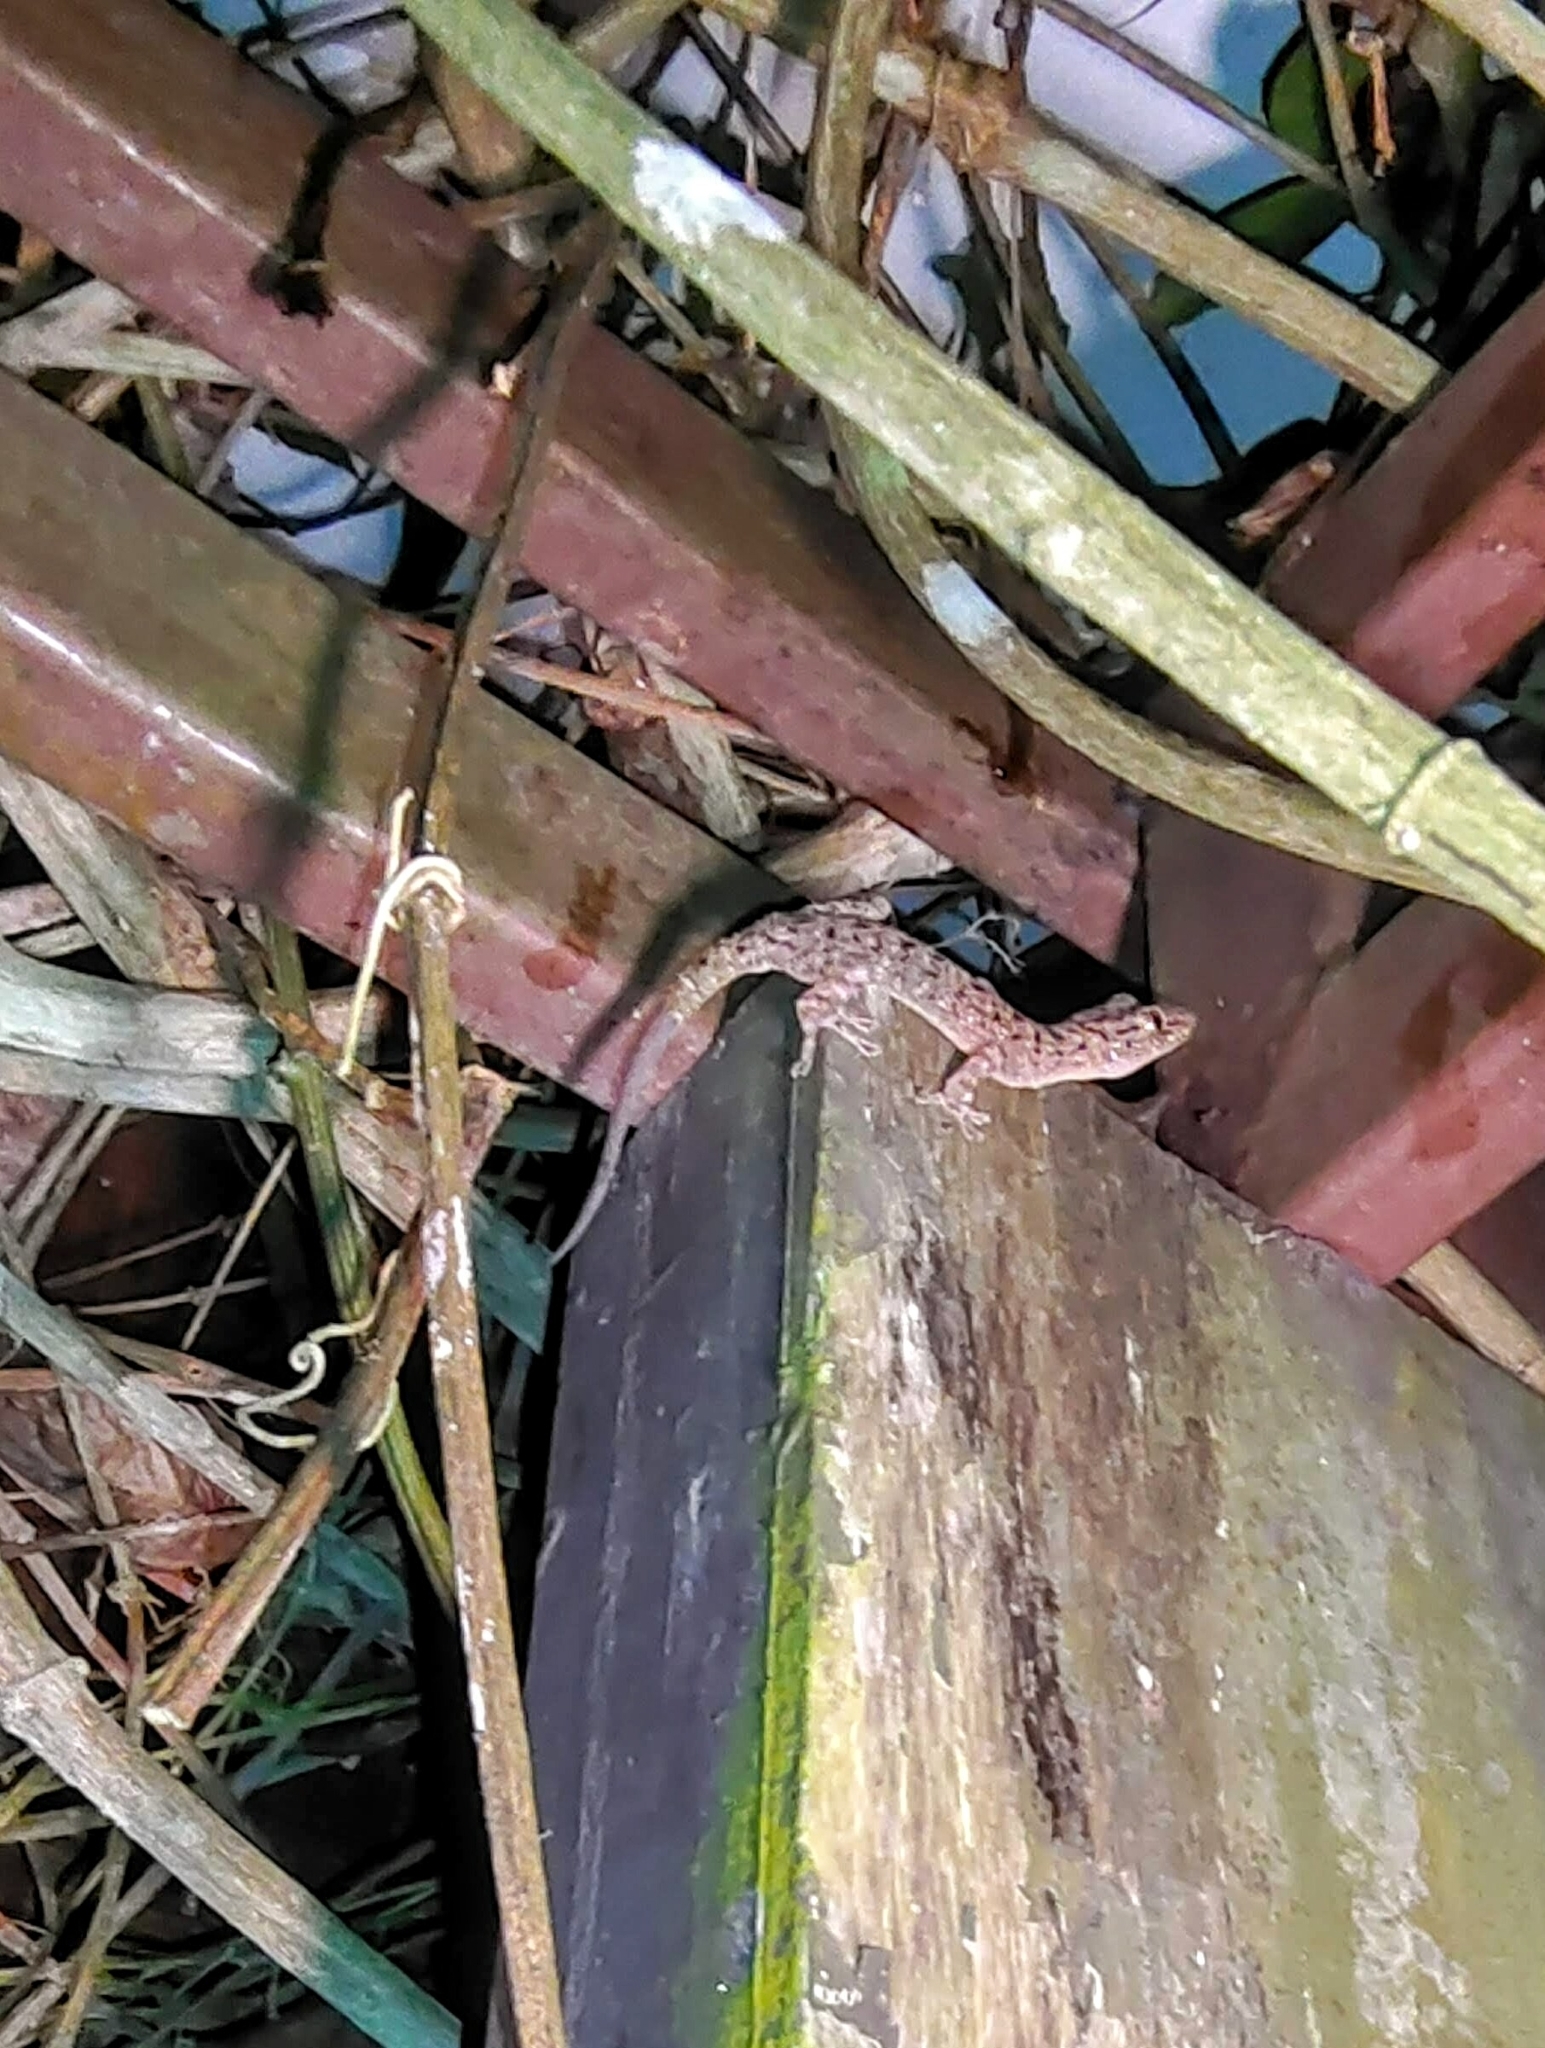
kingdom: Animalia
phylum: Chordata
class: Squamata
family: Gekkonidae
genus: Gekko
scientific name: Gekko monarchus
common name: Spotted house gecko
